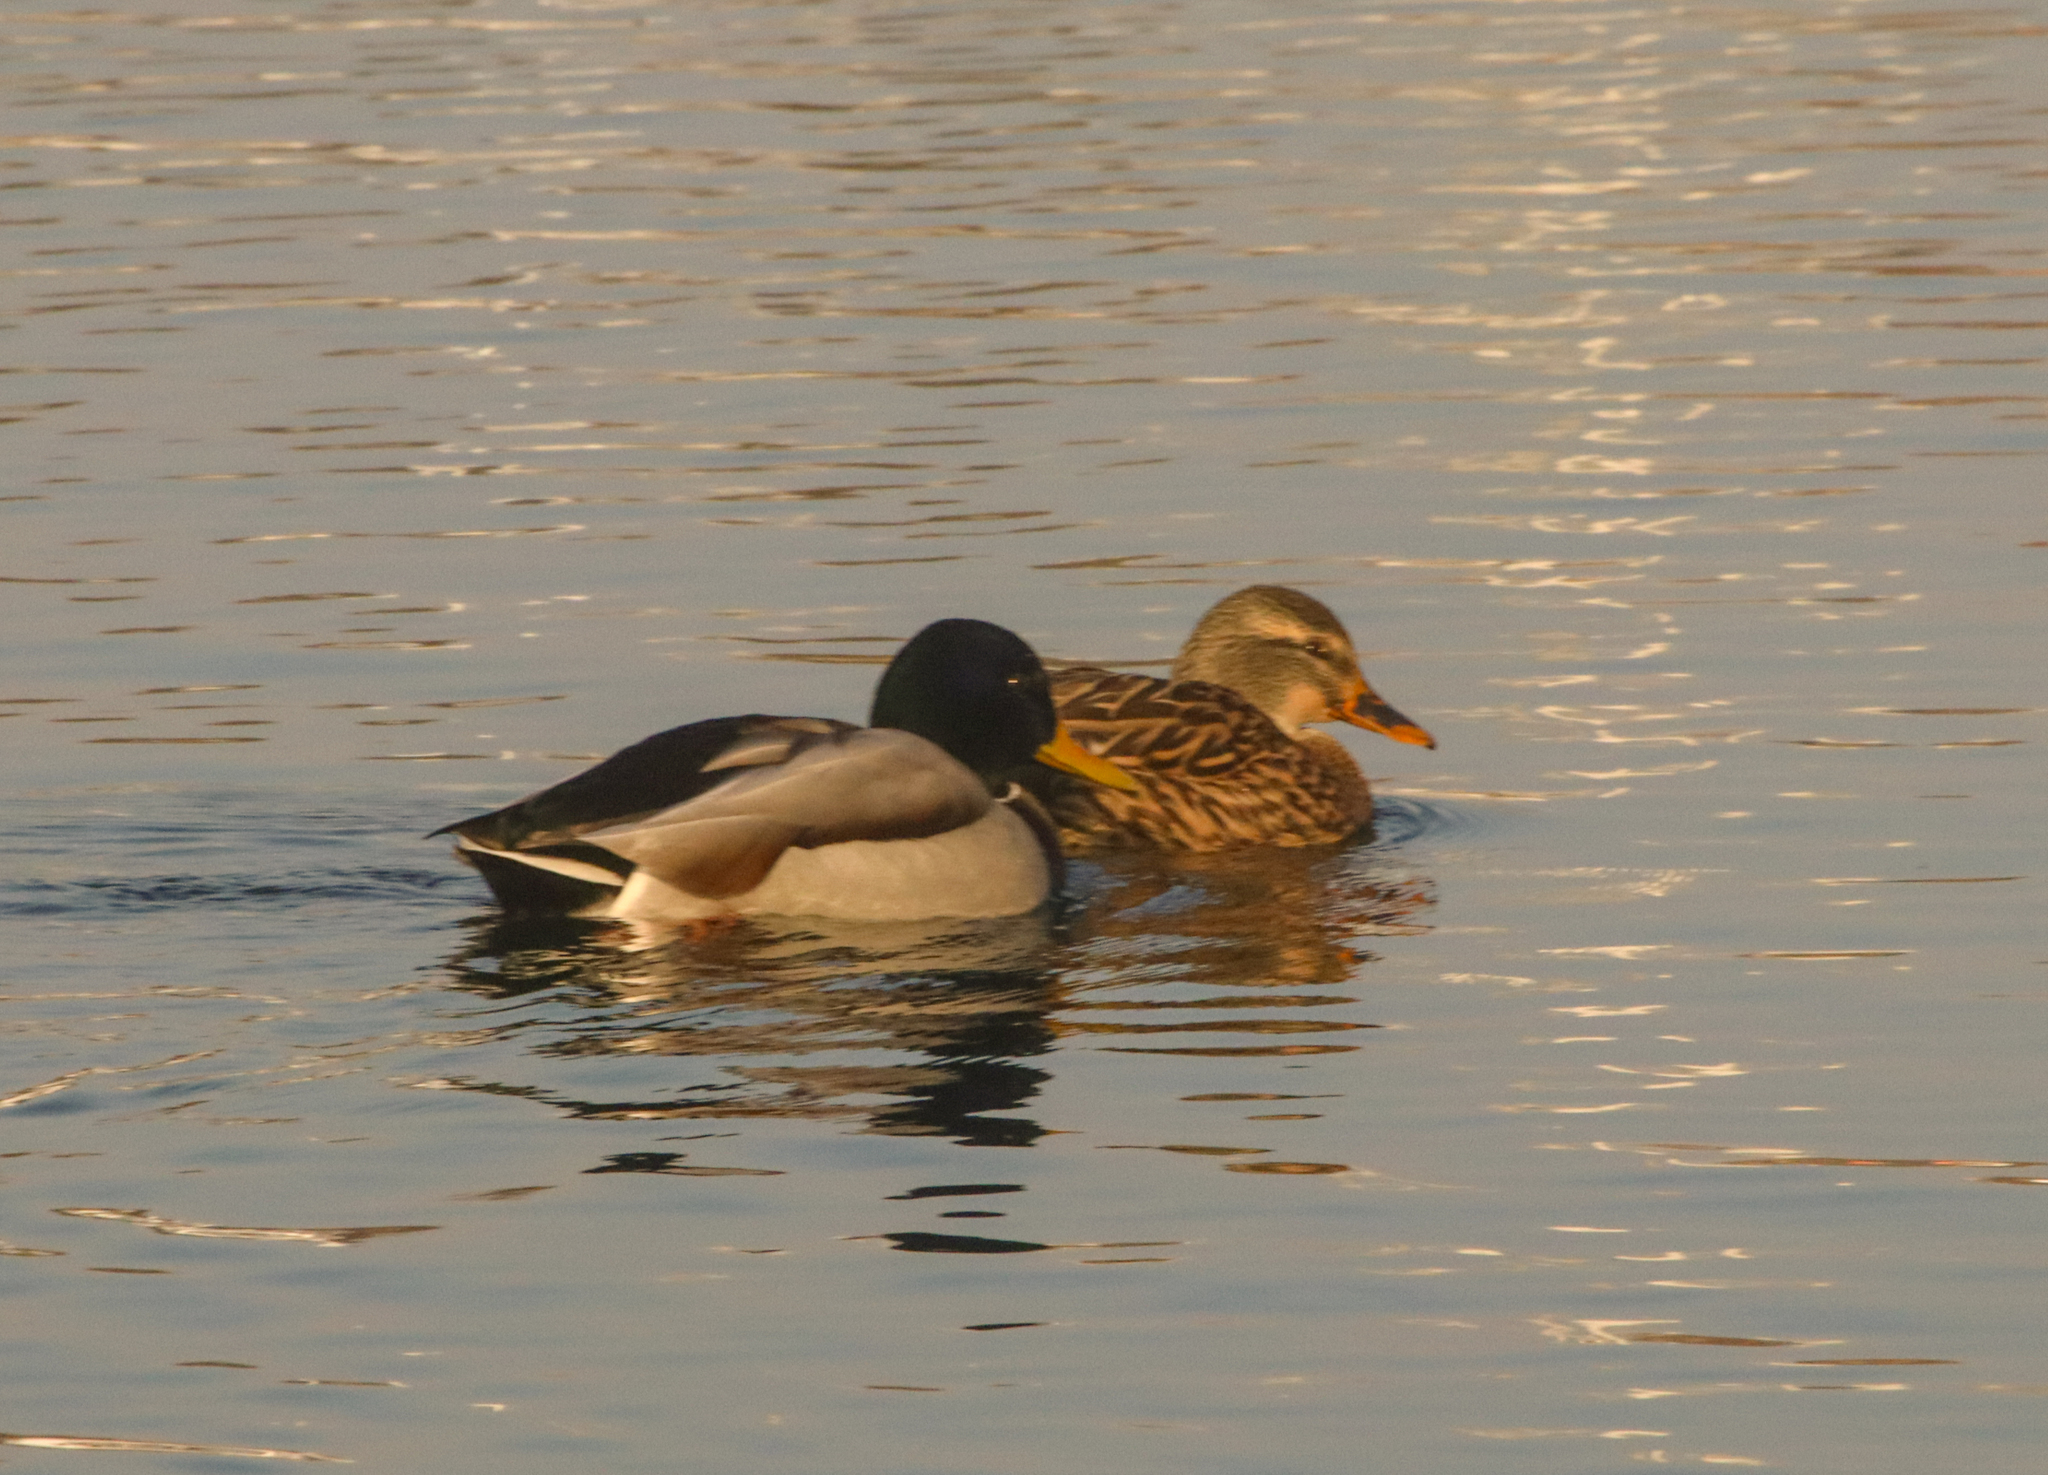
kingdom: Animalia
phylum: Chordata
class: Aves
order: Anseriformes
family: Anatidae
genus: Anas
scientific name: Anas platyrhynchos
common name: Mallard
